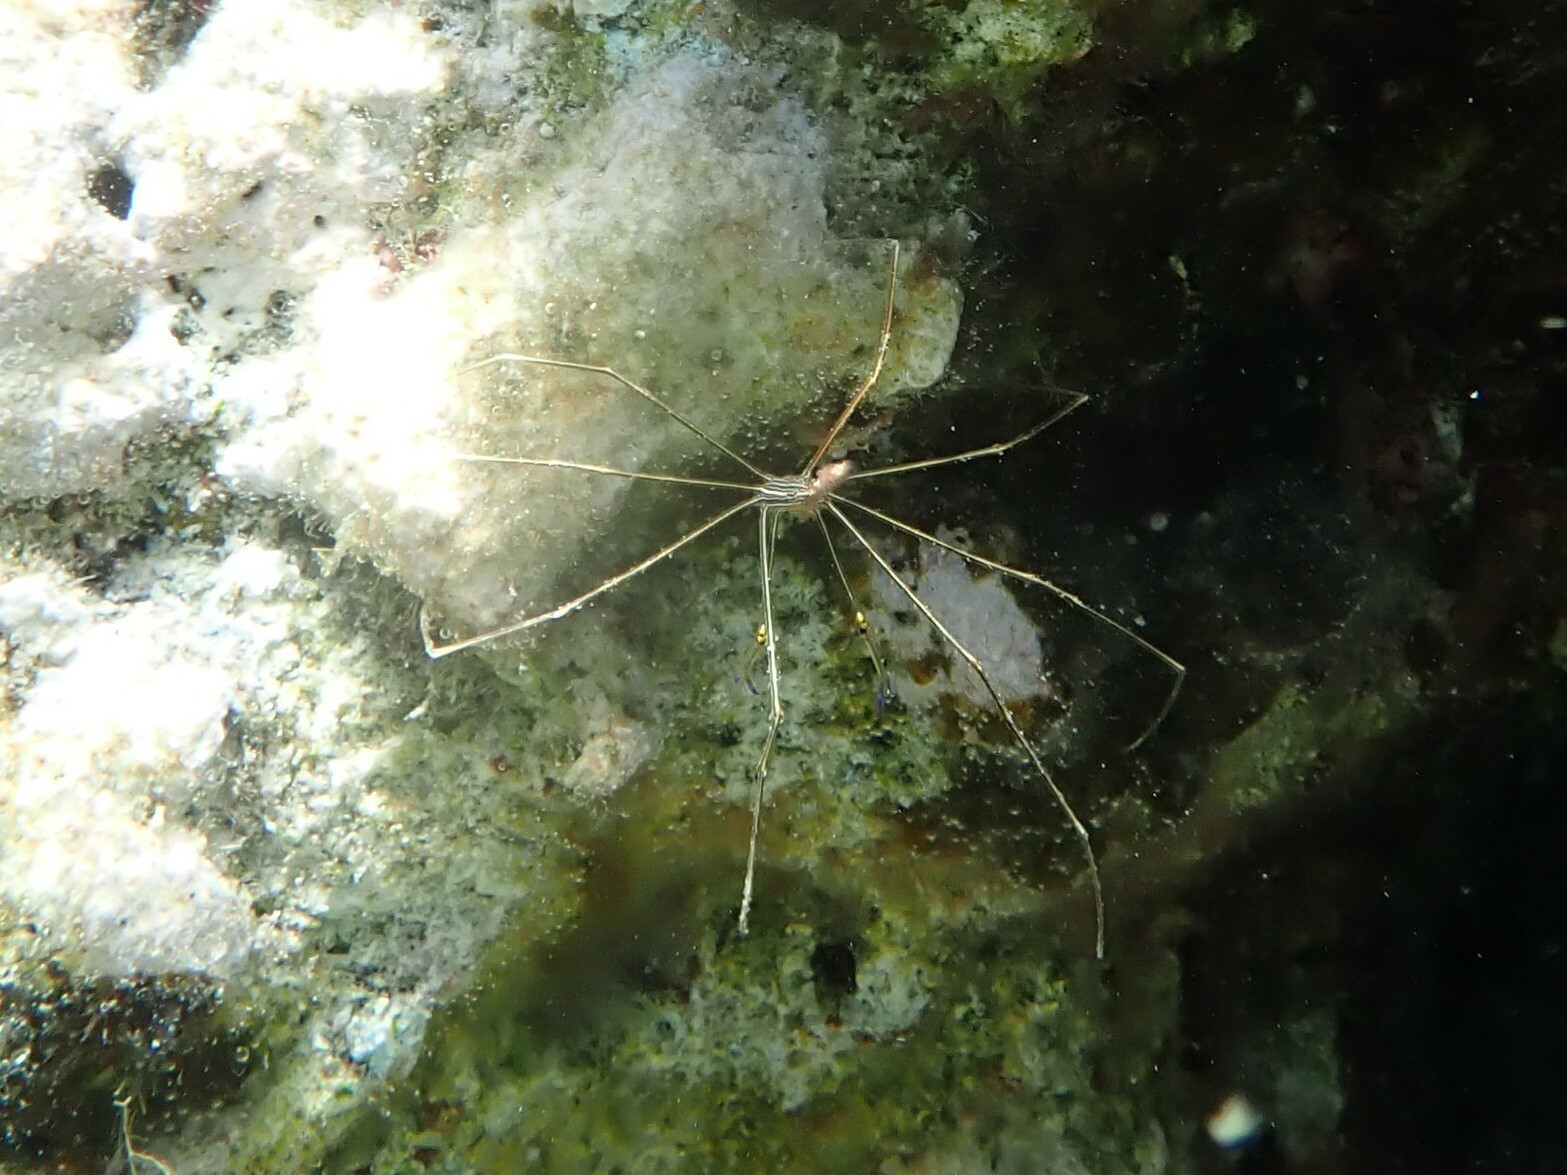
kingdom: Animalia
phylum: Arthropoda
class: Malacostraca
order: Decapoda
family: Inachoididae
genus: Stenorhynchus
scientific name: Stenorhynchus seticornis
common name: Arrow crab
